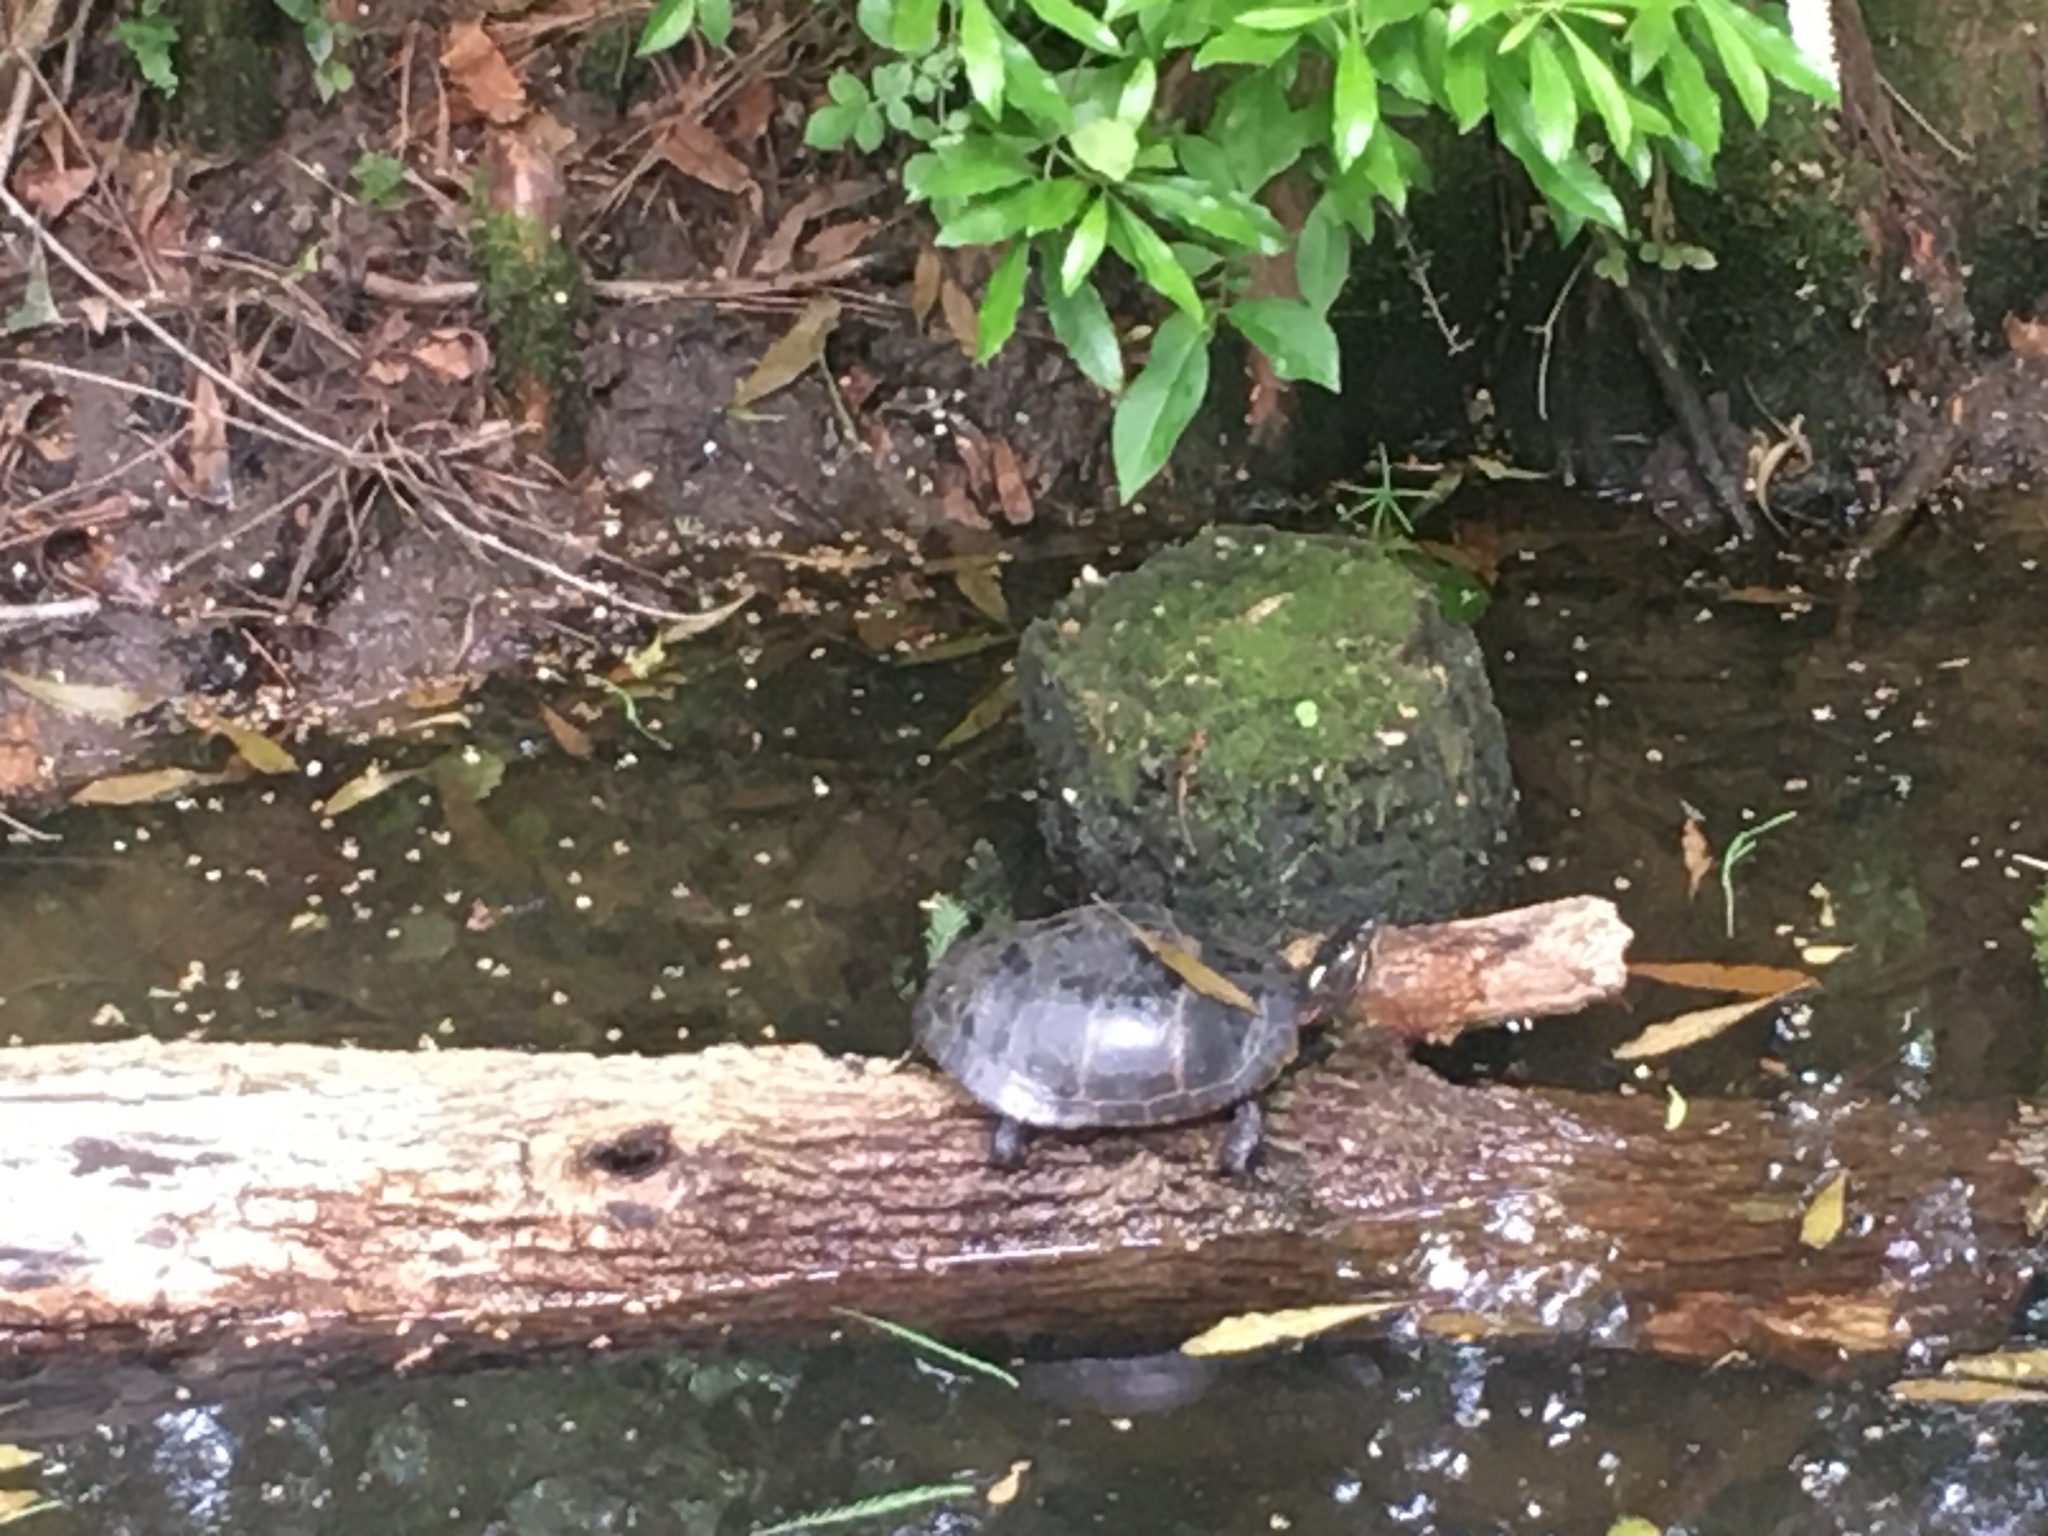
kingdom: Animalia
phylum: Chordata
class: Testudines
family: Emydidae
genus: Chrysemys
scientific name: Chrysemys picta
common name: Painted turtle
